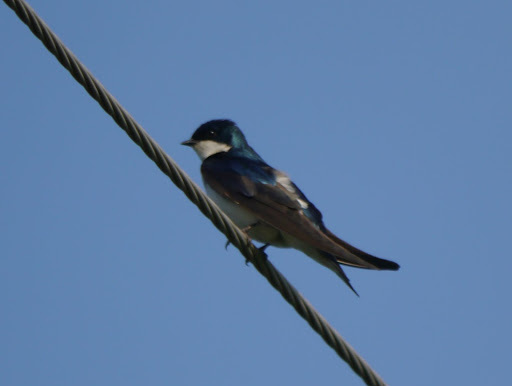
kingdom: Animalia
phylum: Chordata
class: Aves
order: Passeriformes
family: Hirundinidae
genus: Tachycineta
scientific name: Tachycineta bicolor
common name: Tree swallow
